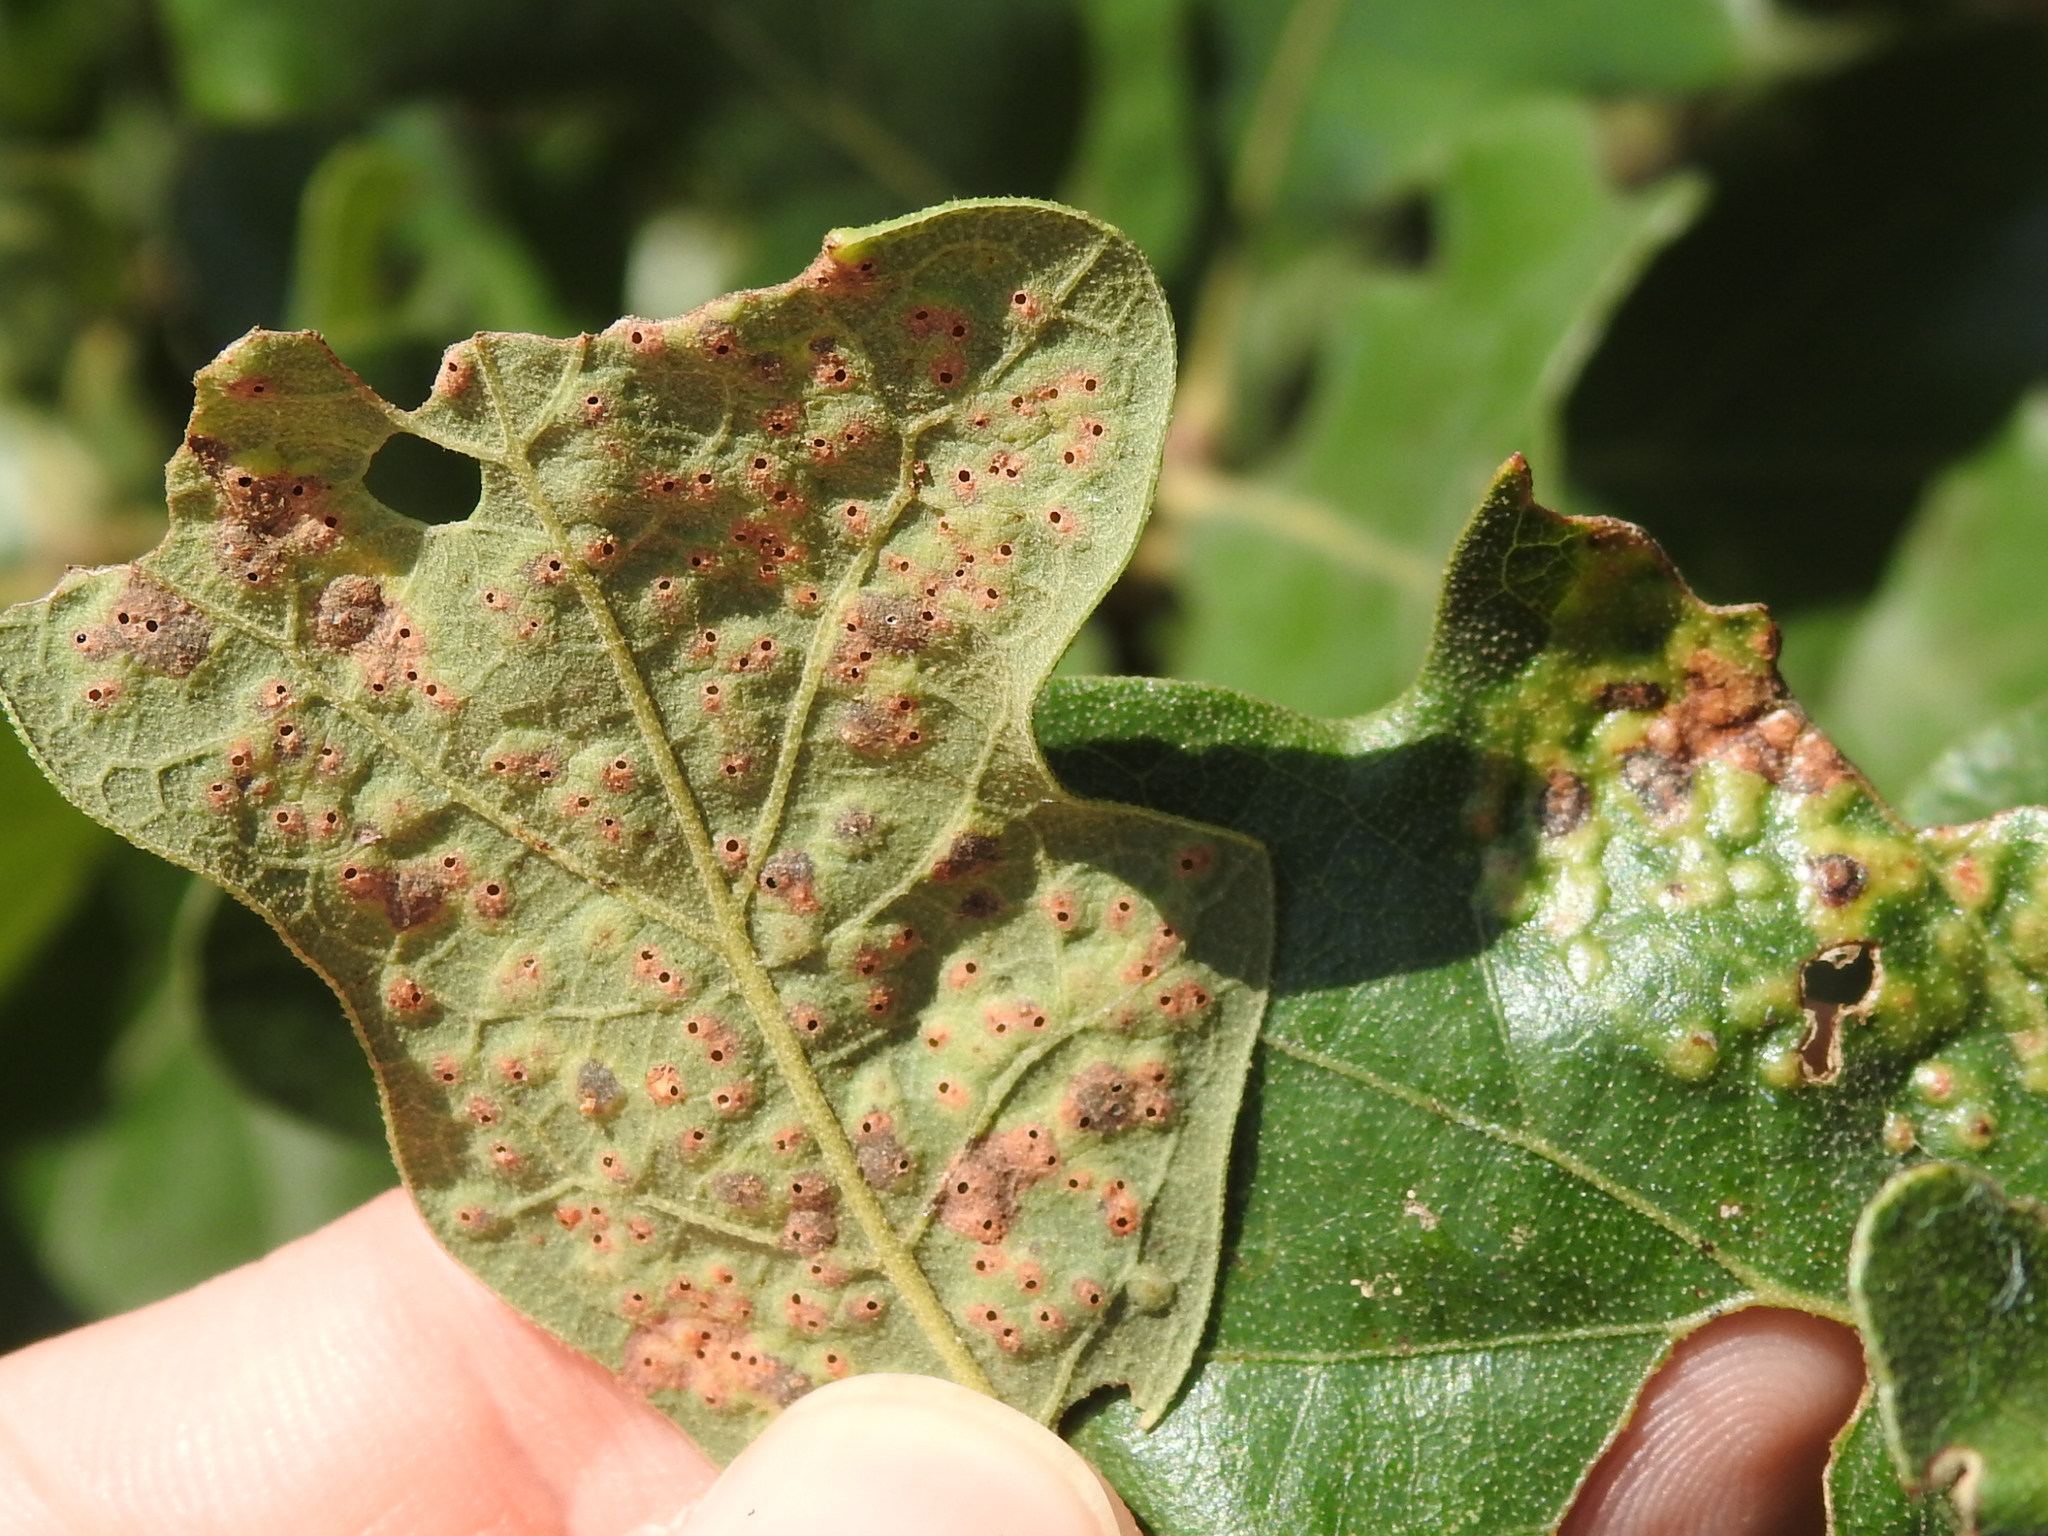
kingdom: Animalia
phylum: Arthropoda
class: Insecta
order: Hymenoptera
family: Cynipidae
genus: Neuroterus
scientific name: Neuroterus niger
